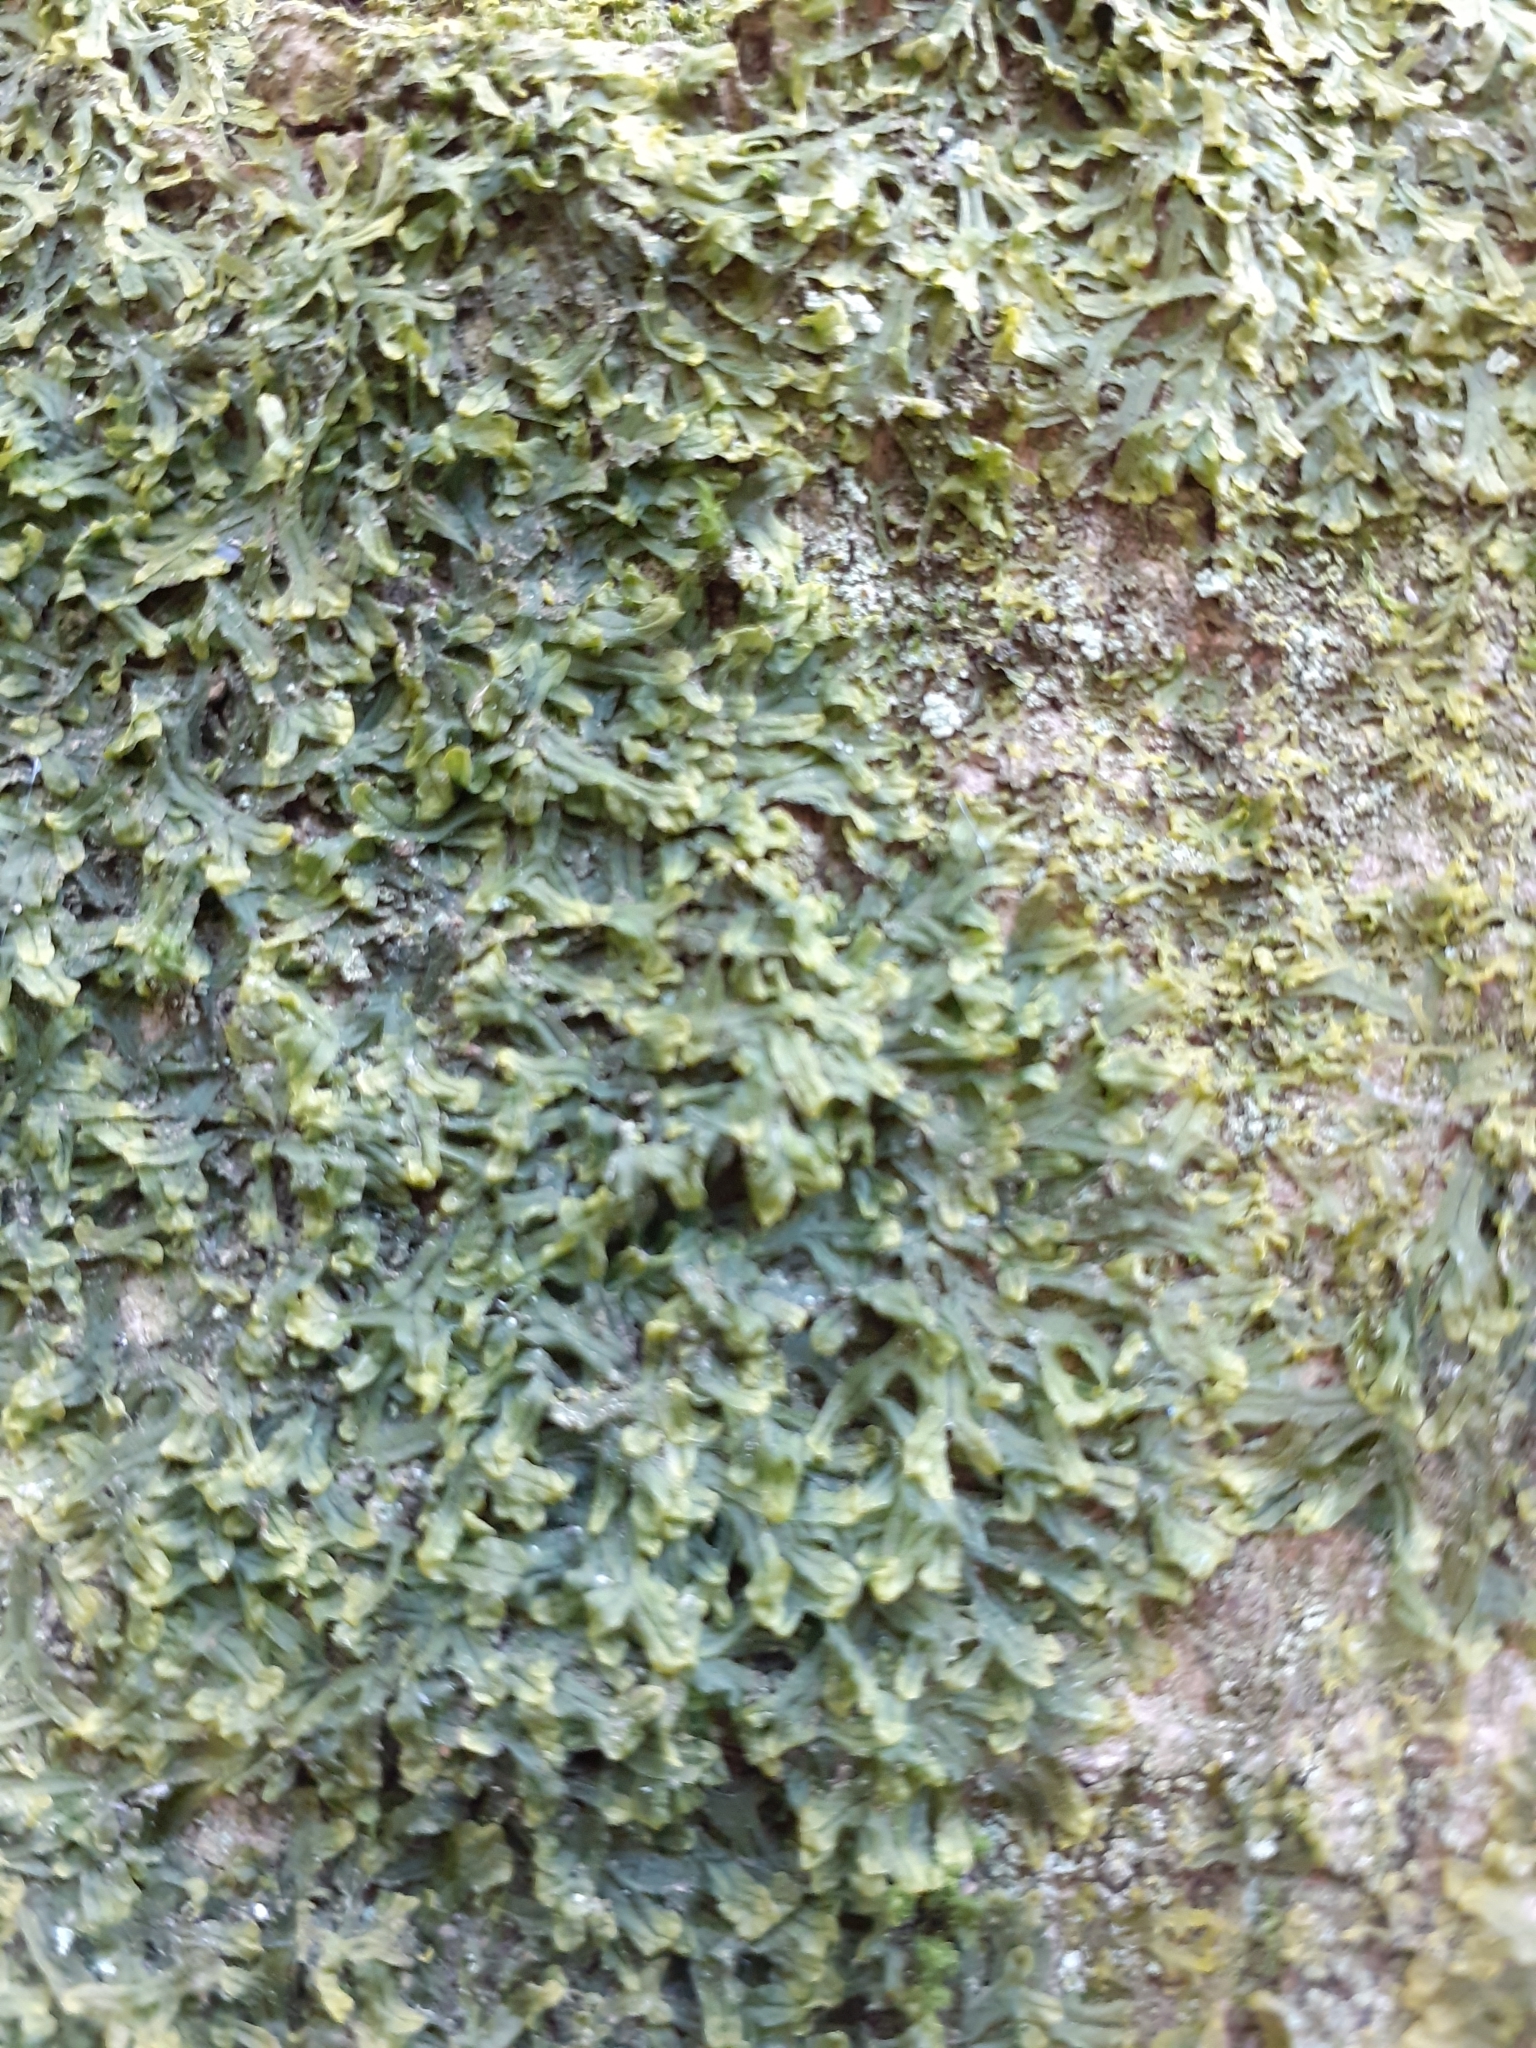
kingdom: Plantae
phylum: Marchantiophyta
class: Jungermanniopsida
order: Metzgeriales
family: Metzgeriaceae
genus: Metzgeria
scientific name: Metzgeria furcata
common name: Forked veilwort
